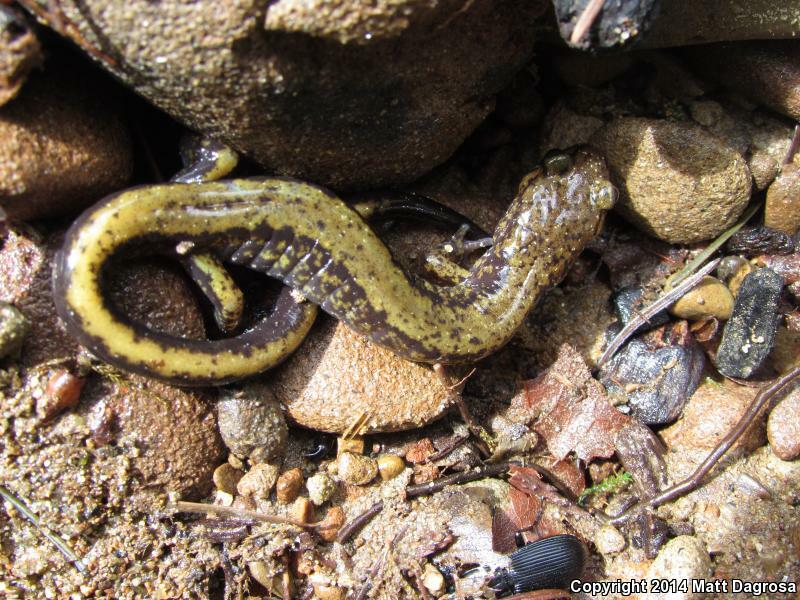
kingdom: Animalia
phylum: Chordata
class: Amphibia
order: Caudata
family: Plethodontidae
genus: Plethodon
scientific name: Plethodon dunni
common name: Dunn's salamander
